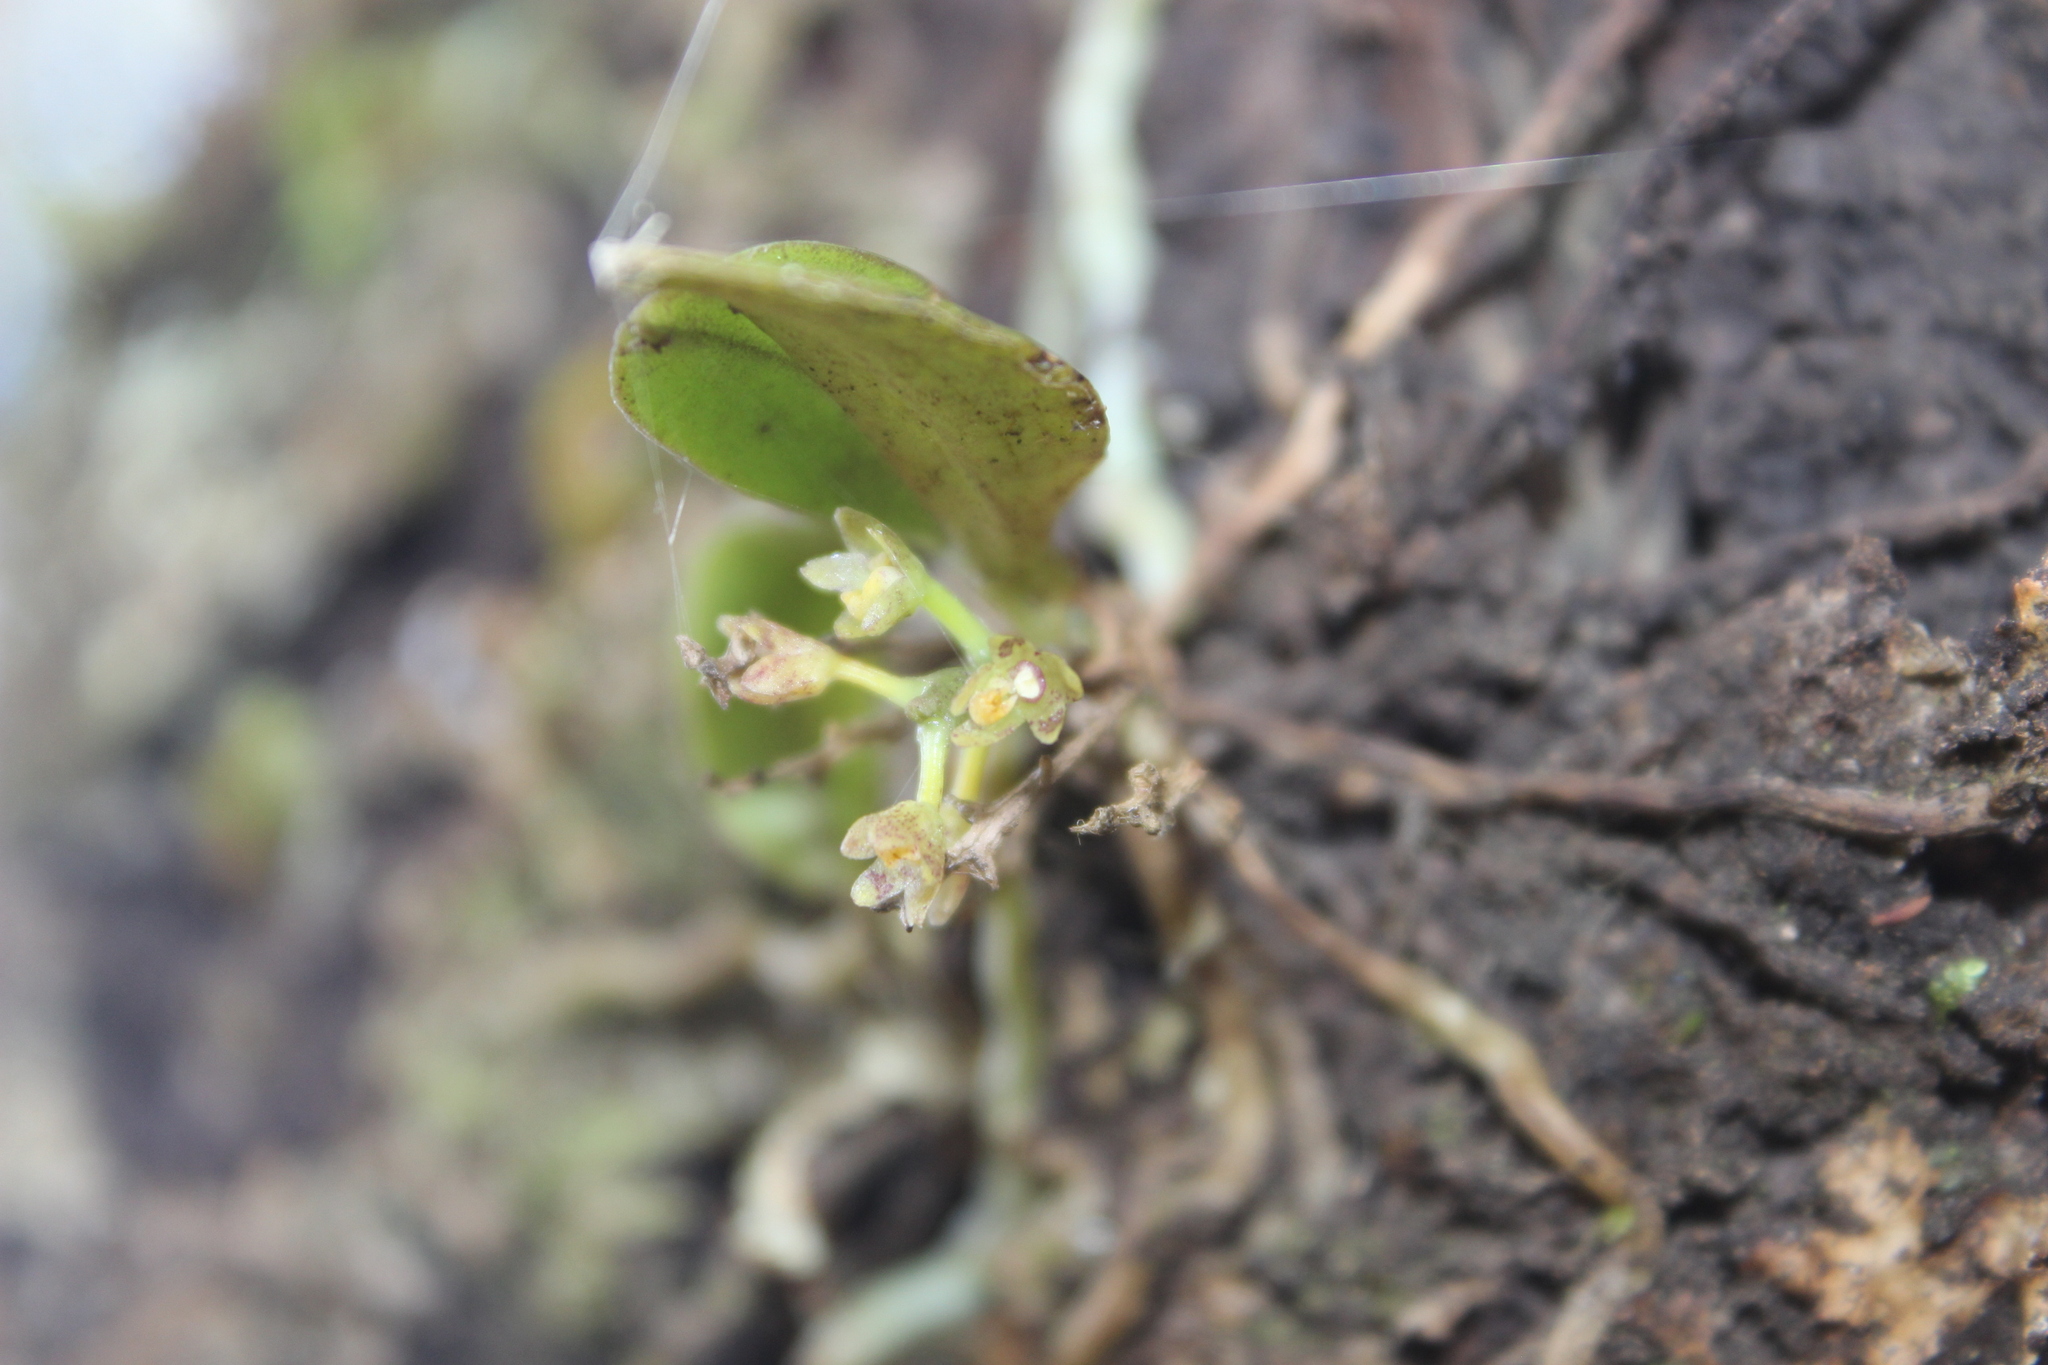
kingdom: Plantae
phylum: Tracheophyta
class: Liliopsida
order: Asparagales
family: Orchidaceae
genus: Drymoanthus
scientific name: Drymoanthus adversus
